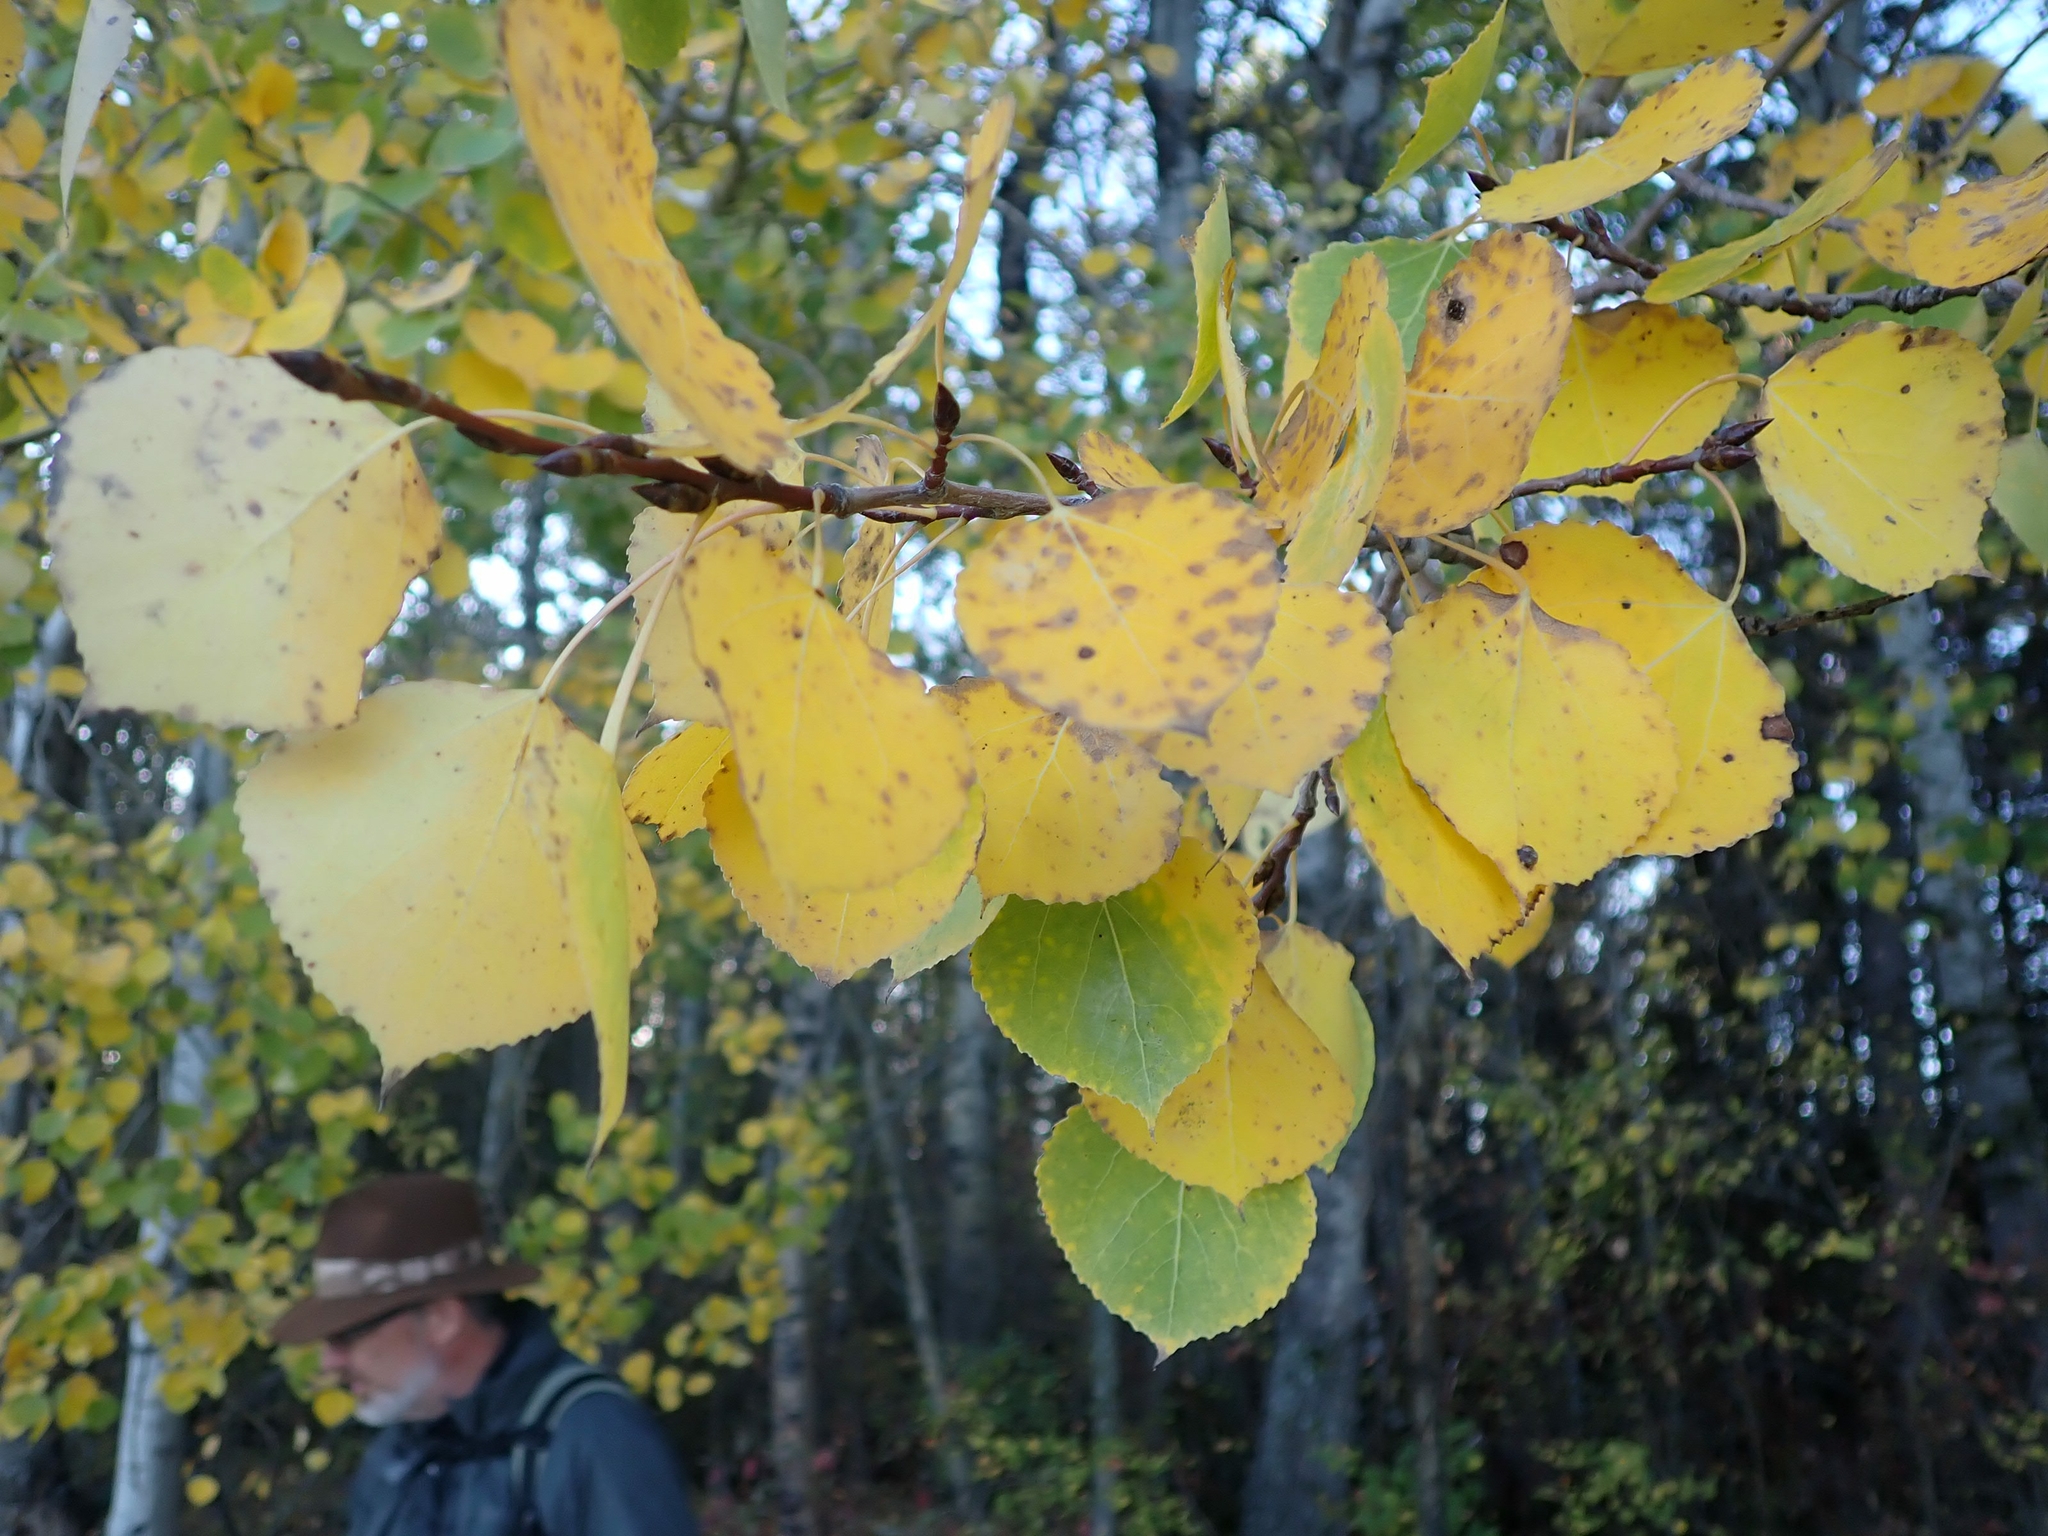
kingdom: Plantae
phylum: Tracheophyta
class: Magnoliopsida
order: Malpighiales
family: Salicaceae
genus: Populus
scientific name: Populus tremuloides
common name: Quaking aspen
